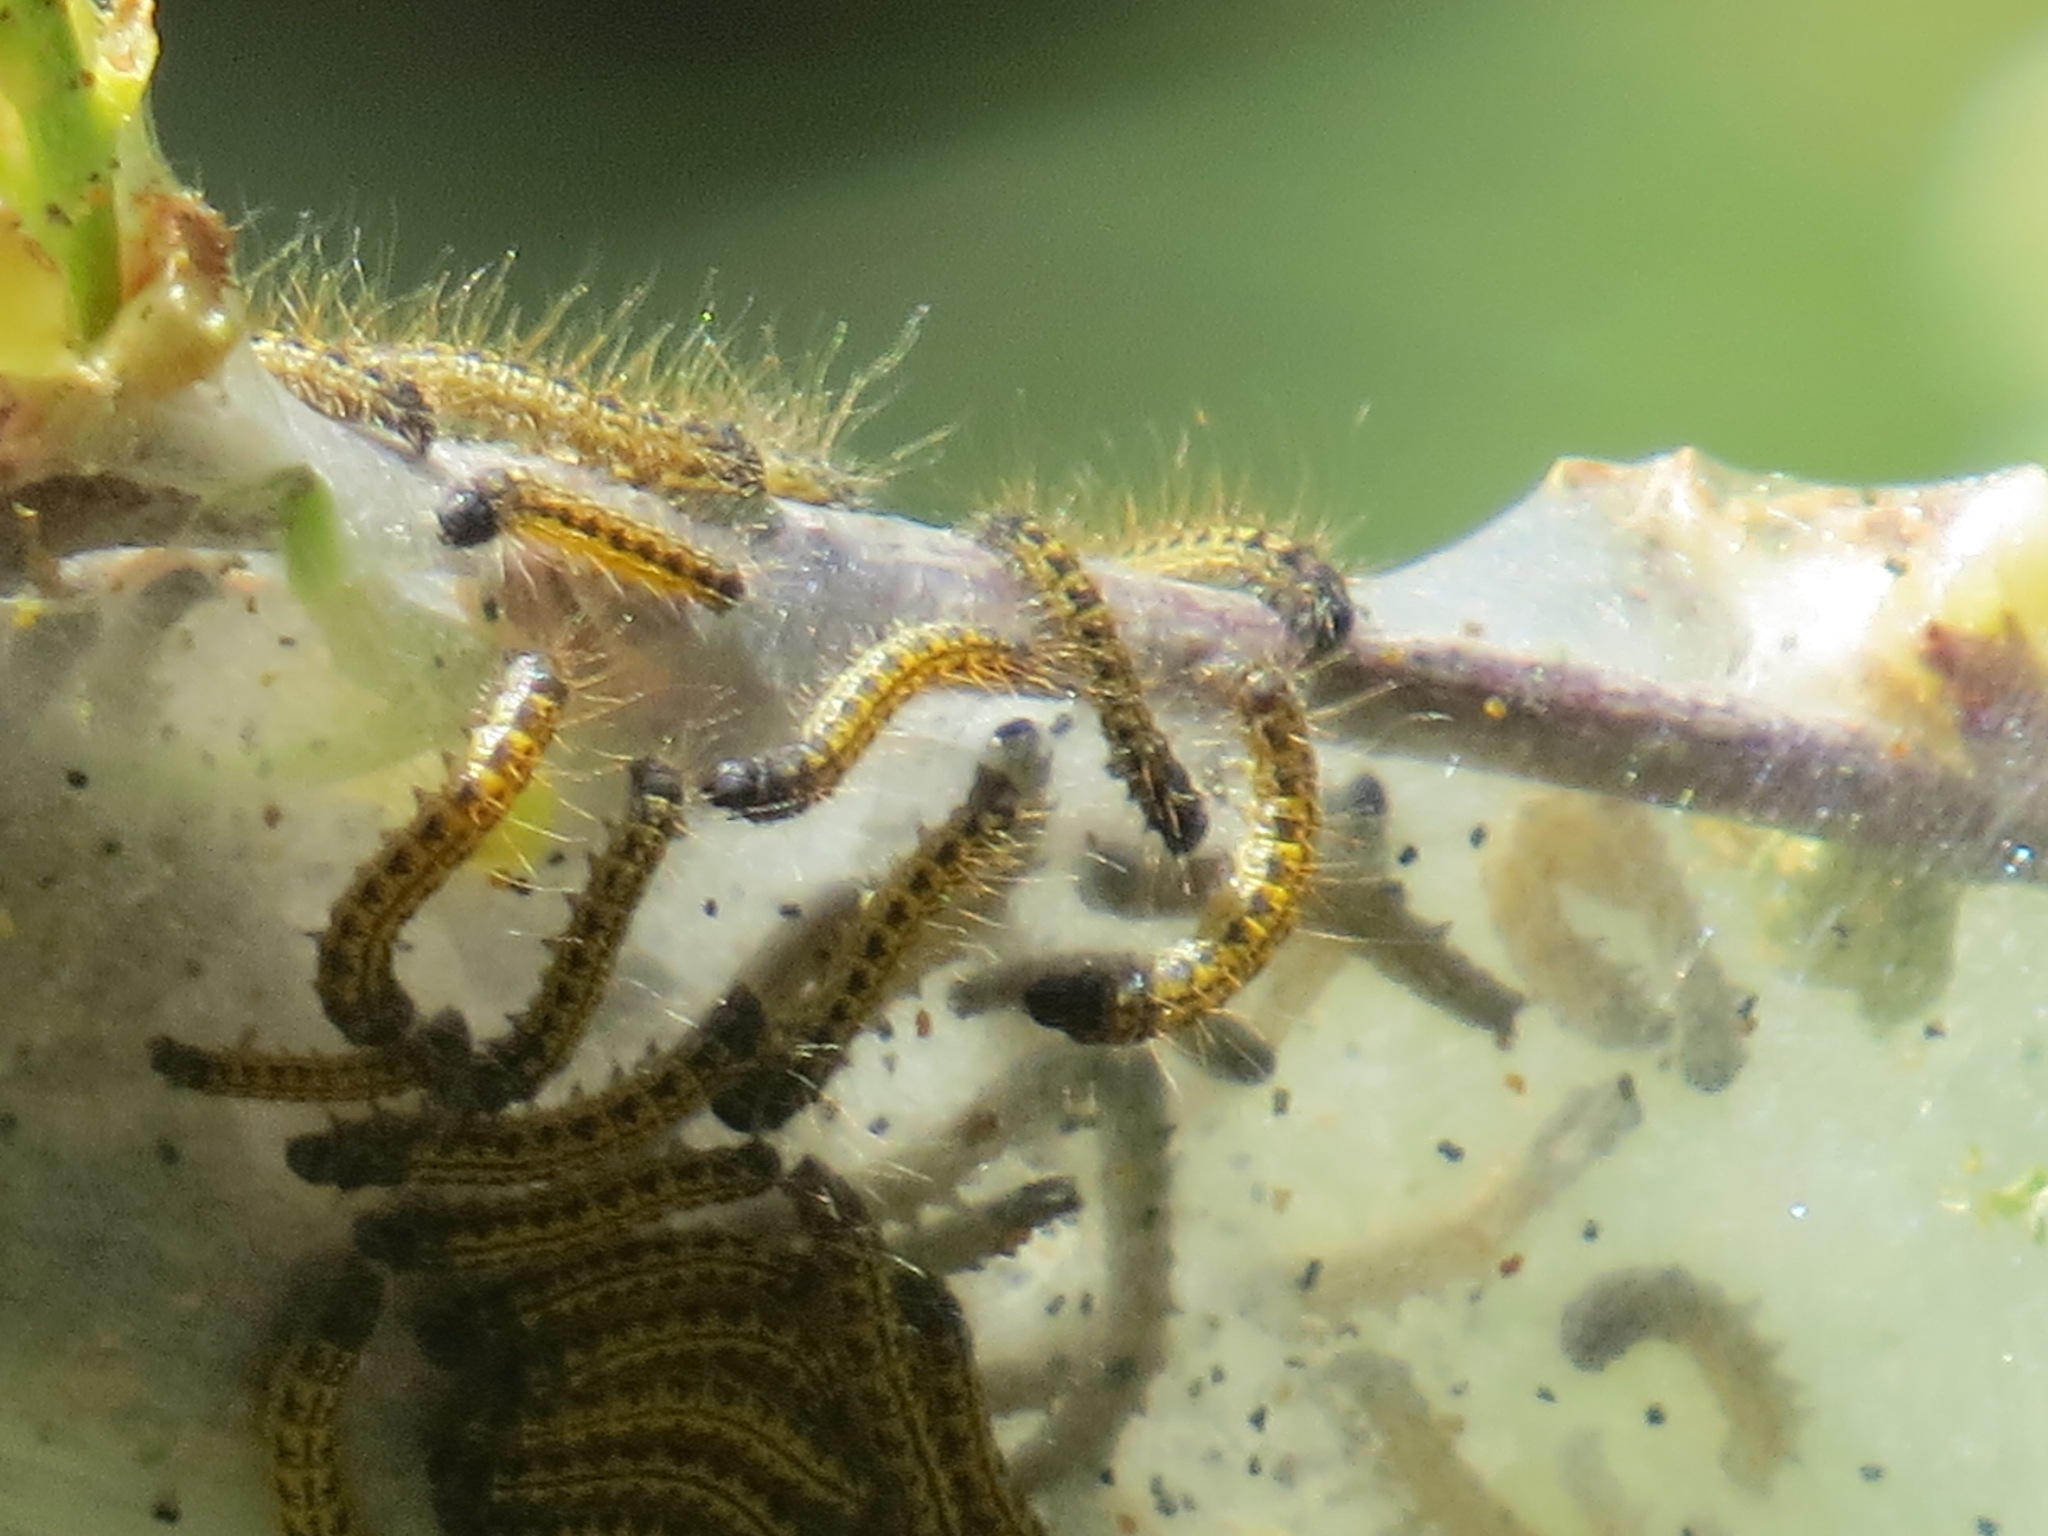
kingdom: Animalia
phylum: Arthropoda
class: Insecta
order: Lepidoptera
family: Lasiocampidae
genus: Malacosoma
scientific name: Malacosoma californica
